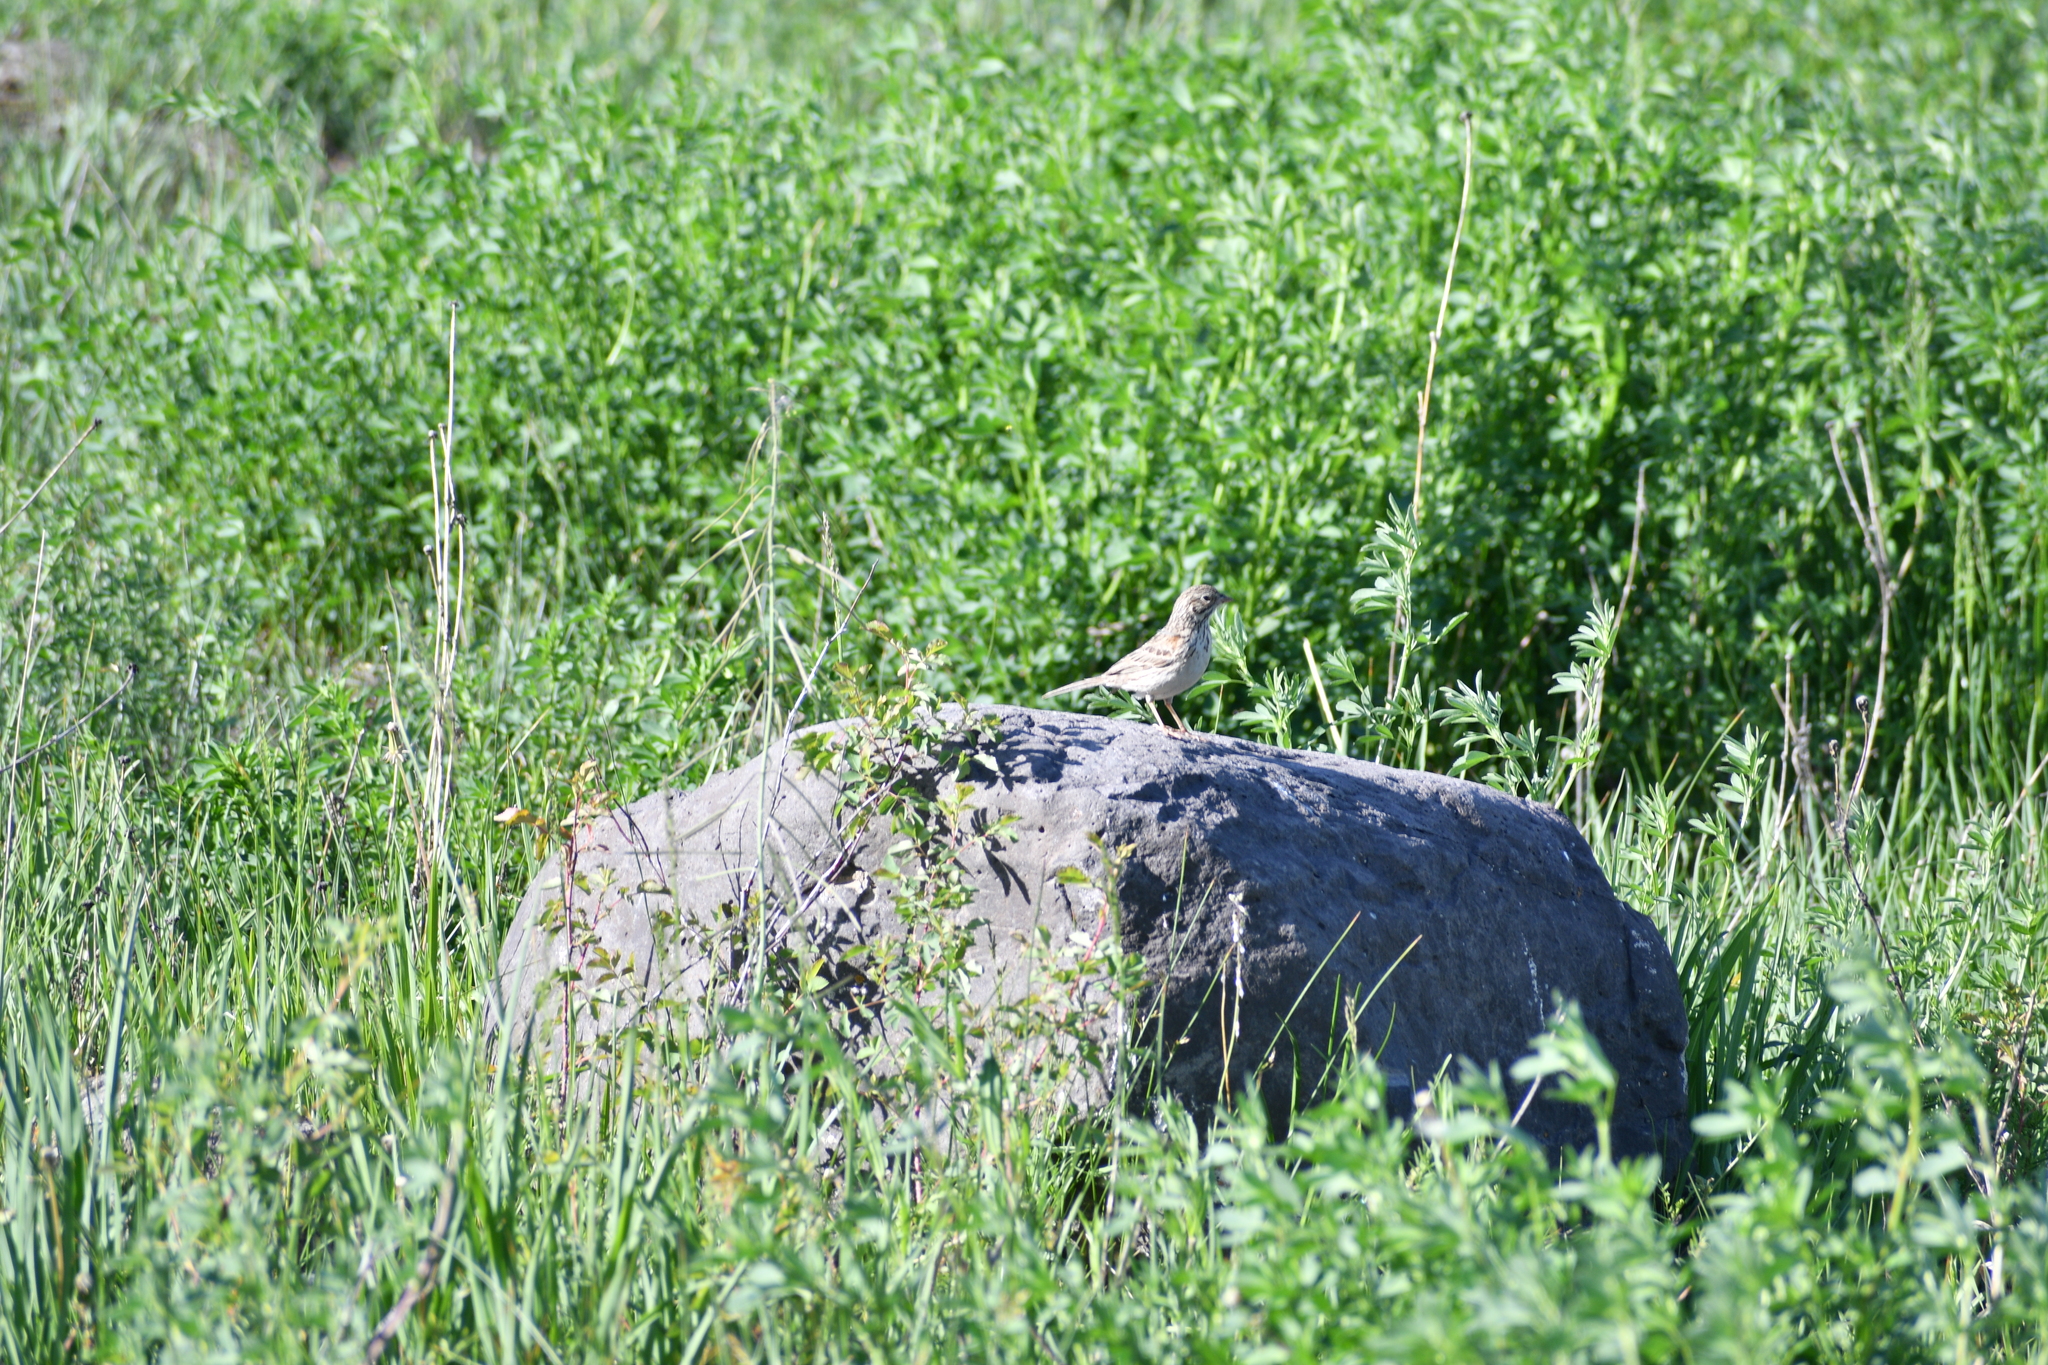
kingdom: Animalia
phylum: Chordata
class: Aves
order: Passeriformes
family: Passerellidae
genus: Pooecetes
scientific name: Pooecetes gramineus
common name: Vesper sparrow
